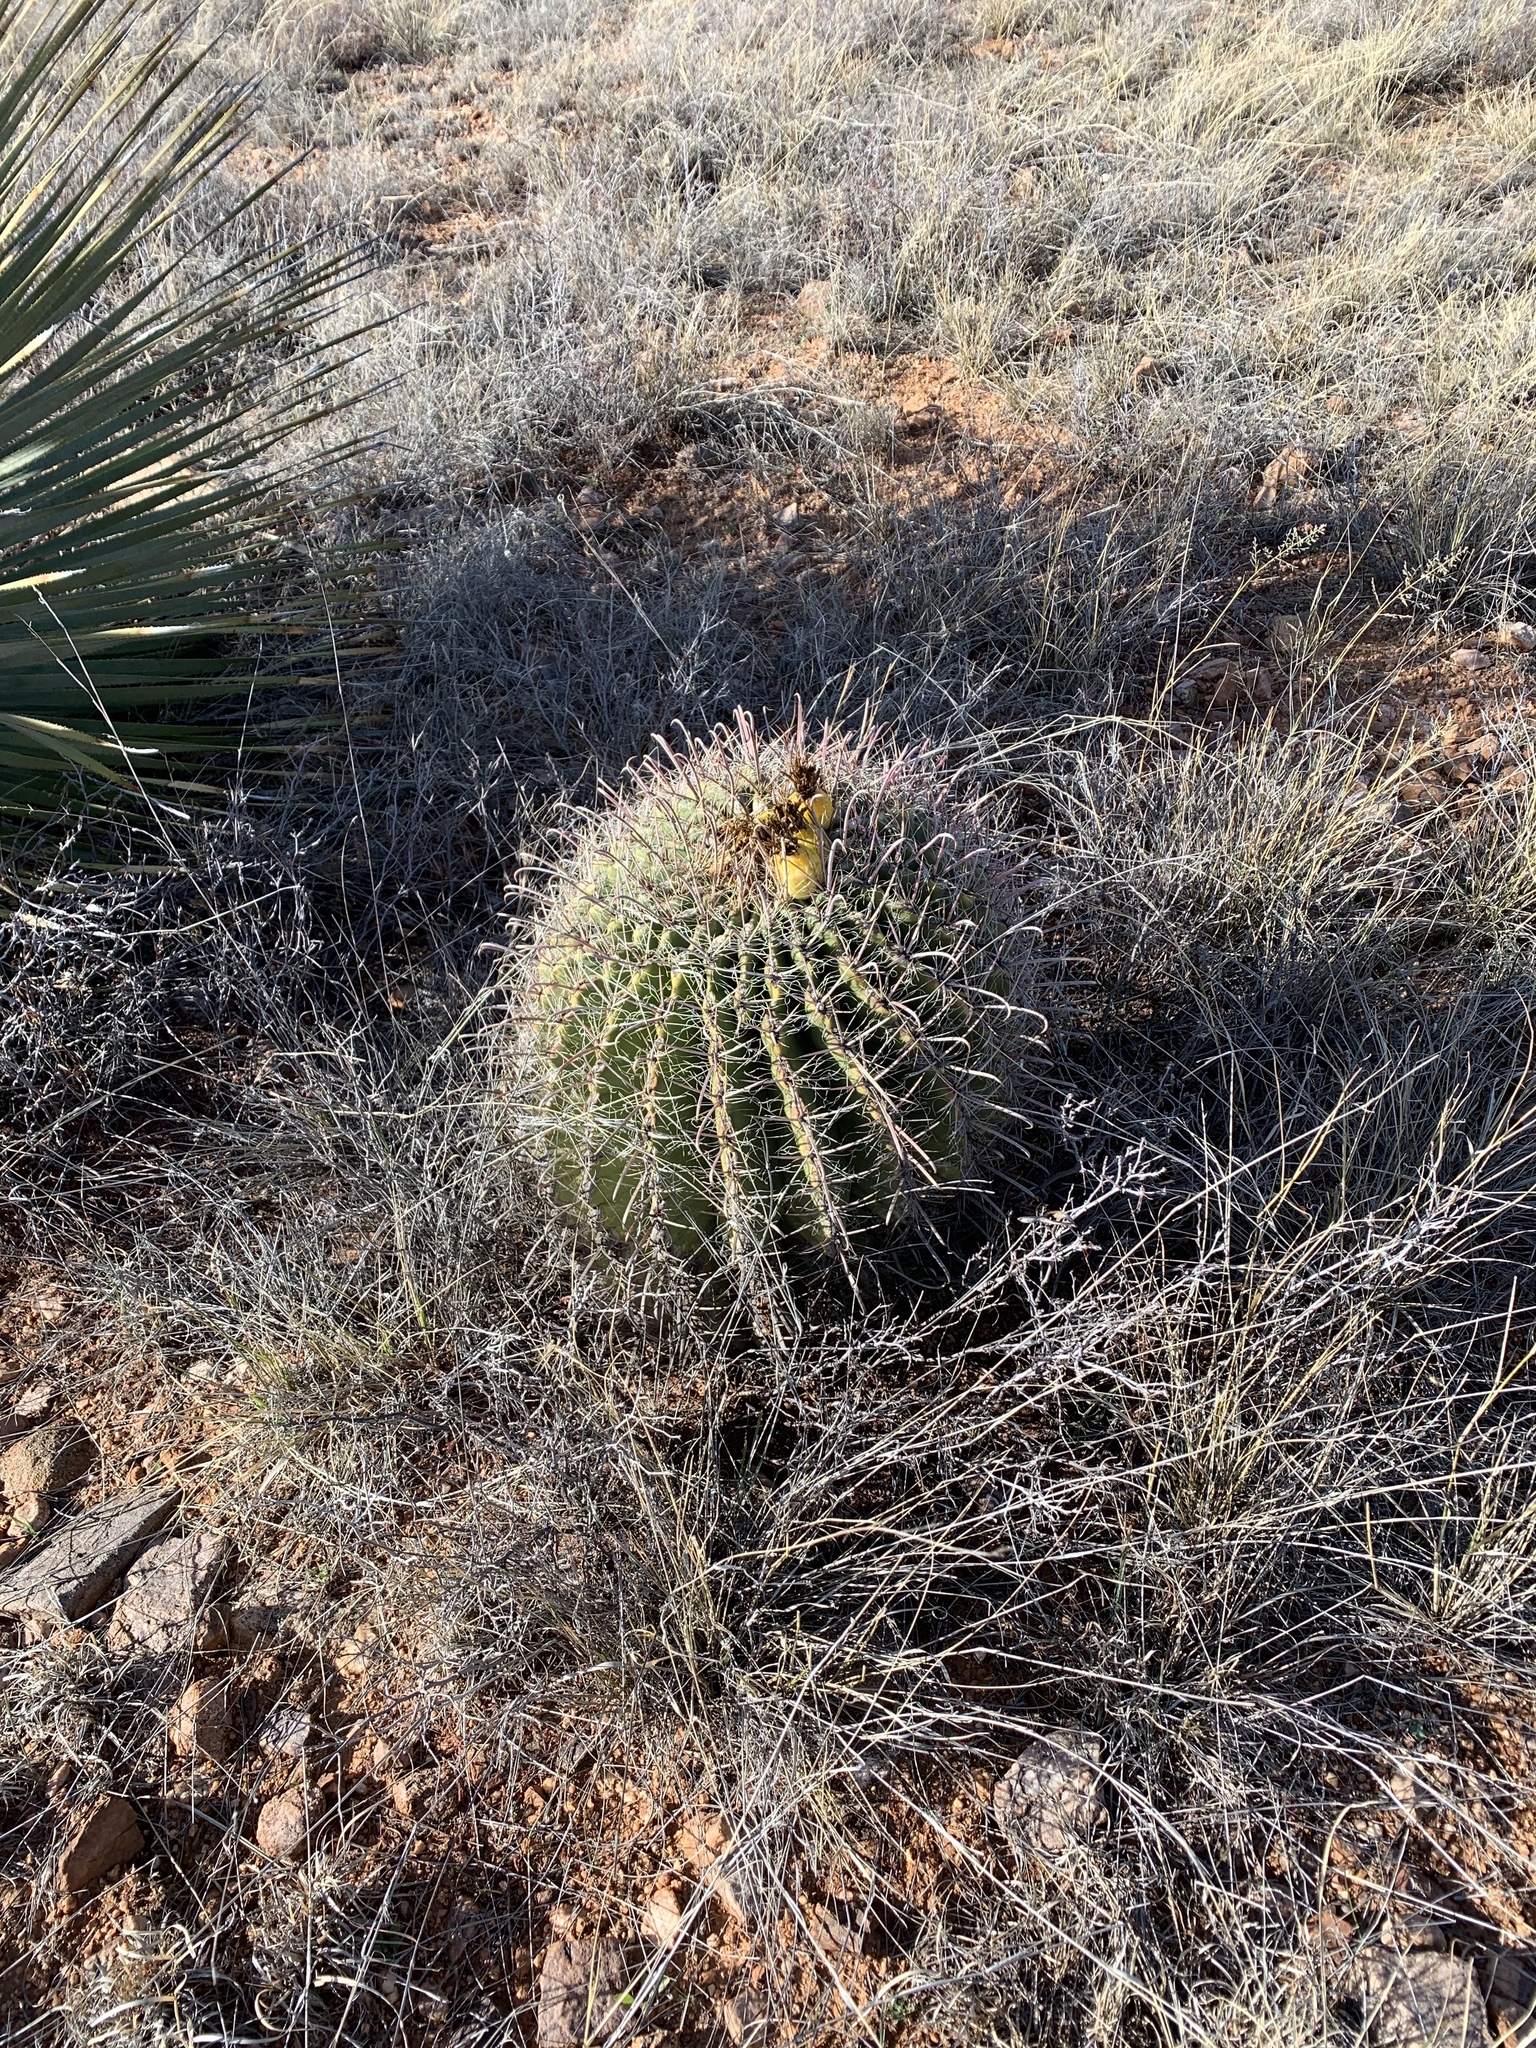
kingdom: Plantae
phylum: Tracheophyta
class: Magnoliopsida
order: Caryophyllales
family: Cactaceae
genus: Ferocactus
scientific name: Ferocactus wislizeni
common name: Candy barrel cactus
